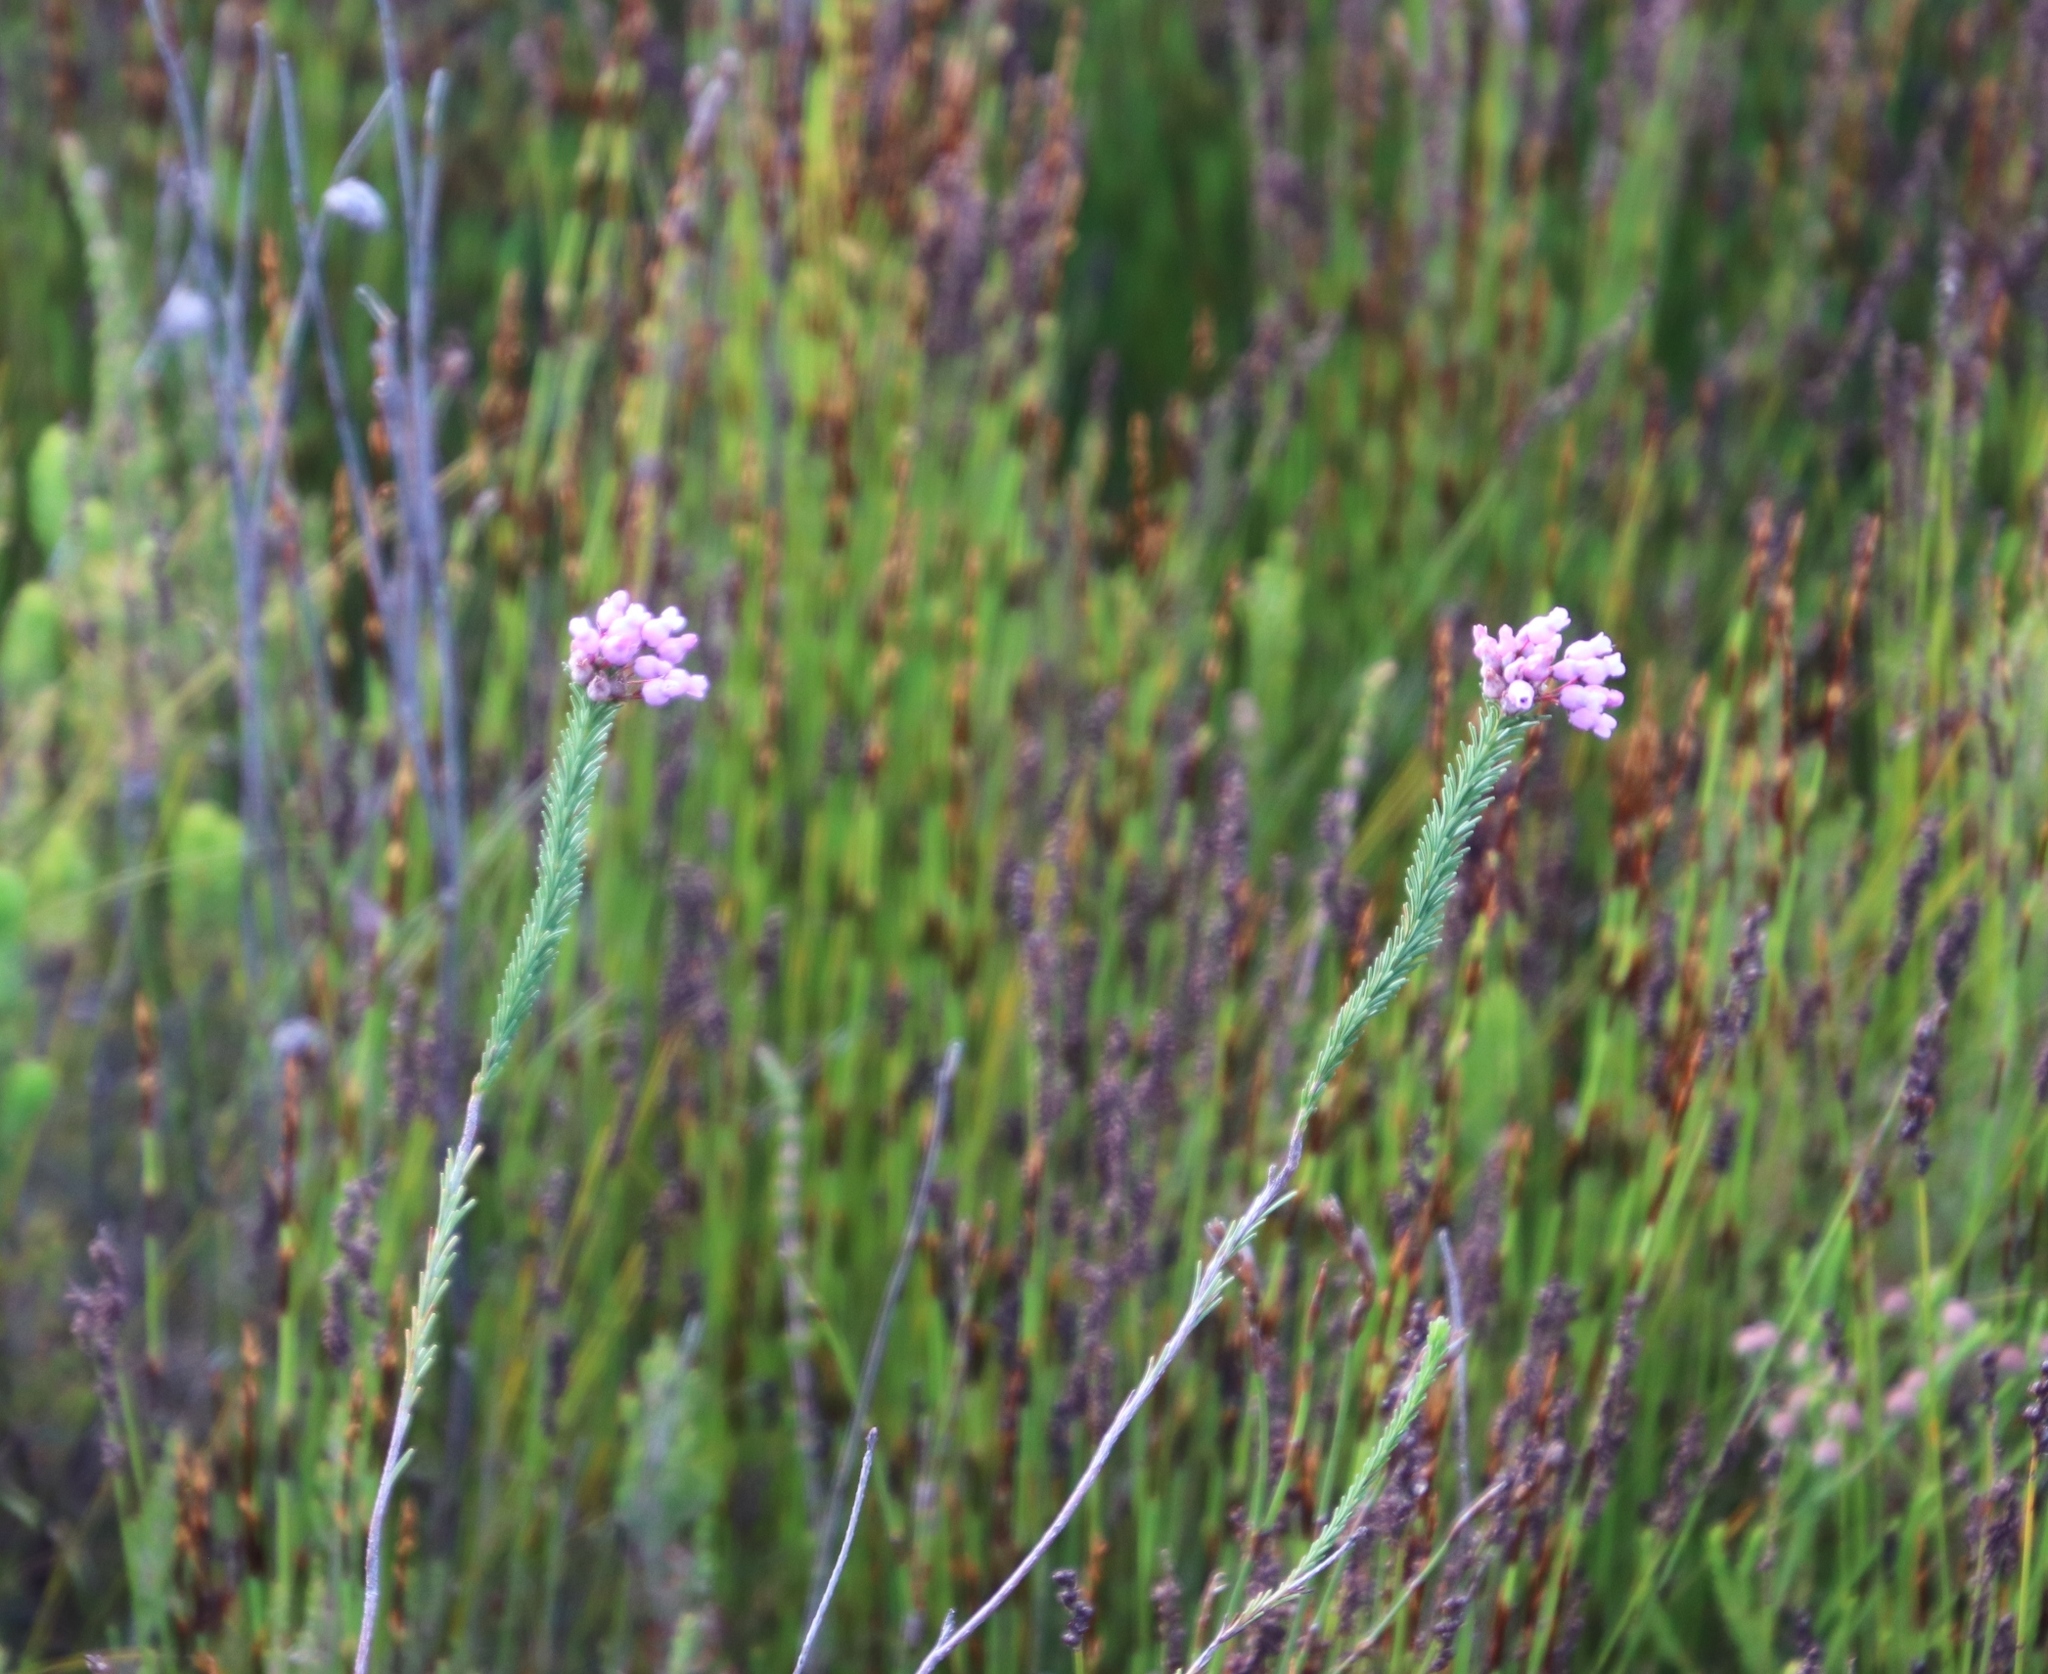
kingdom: Plantae
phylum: Tracheophyta
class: Magnoliopsida
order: Ericales
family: Ericaceae
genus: Erica
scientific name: Erica obliqua
